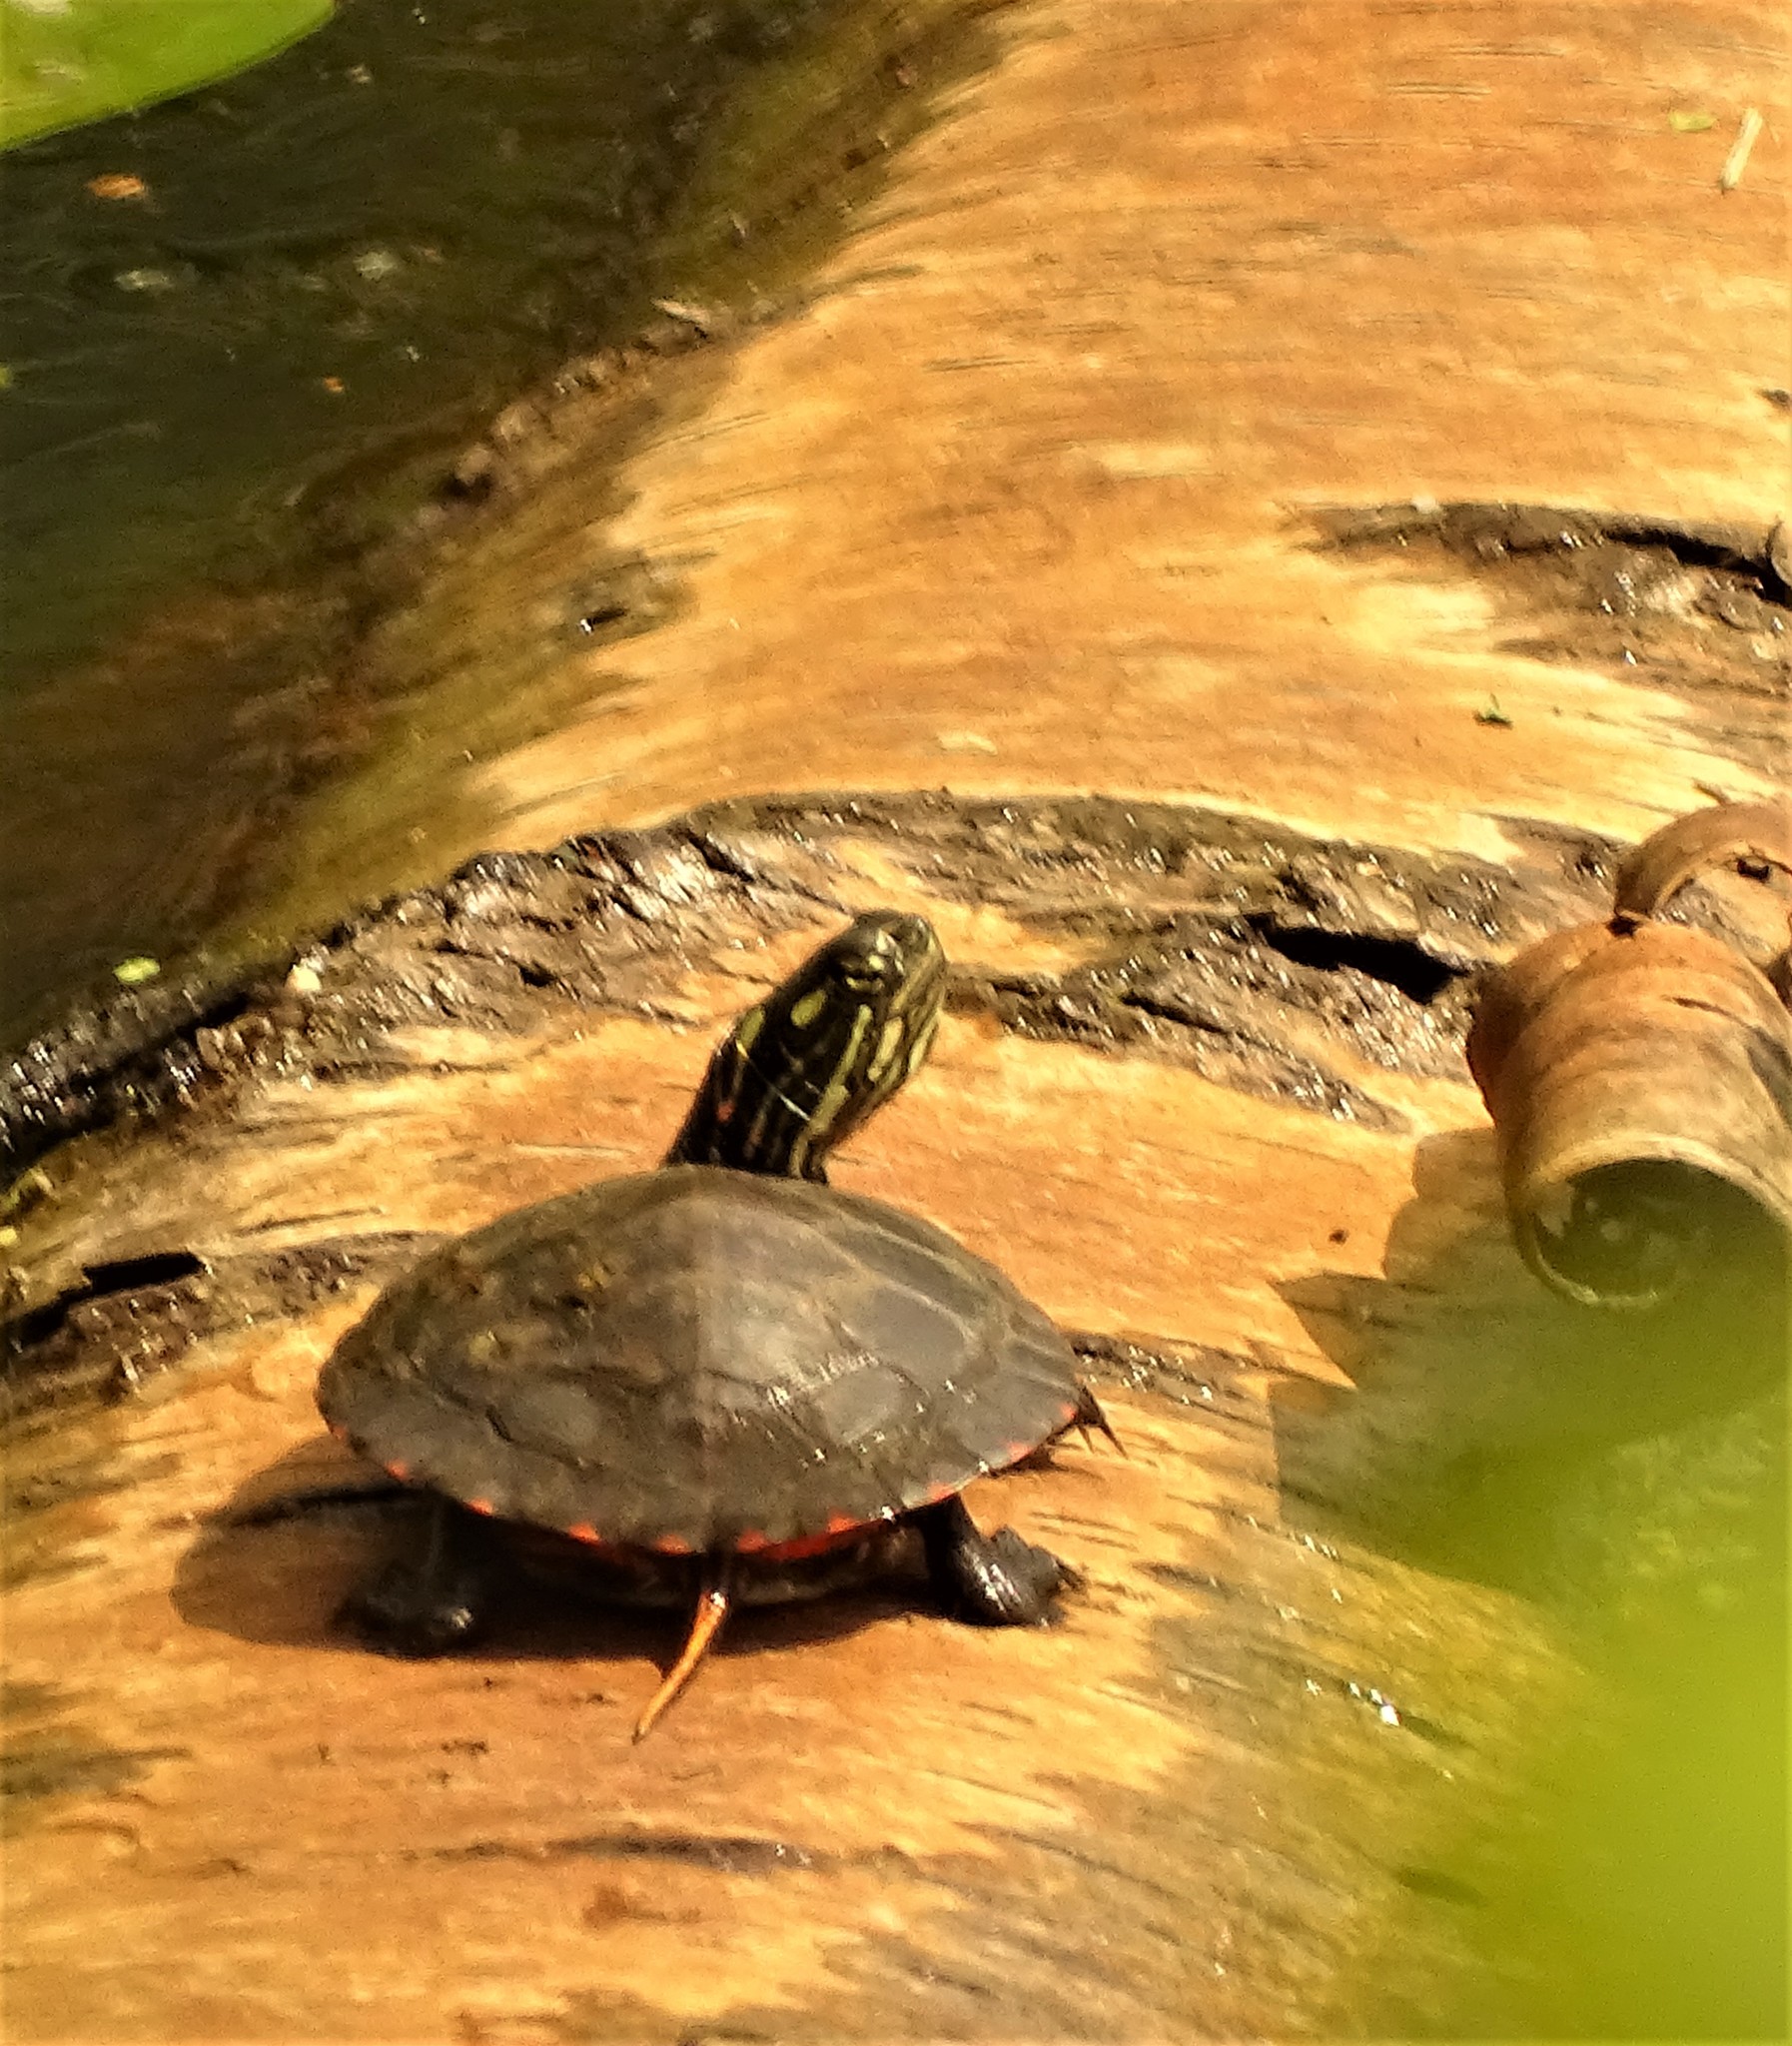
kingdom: Animalia
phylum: Chordata
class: Testudines
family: Emydidae
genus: Chrysemys
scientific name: Chrysemys picta
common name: Painted turtle
